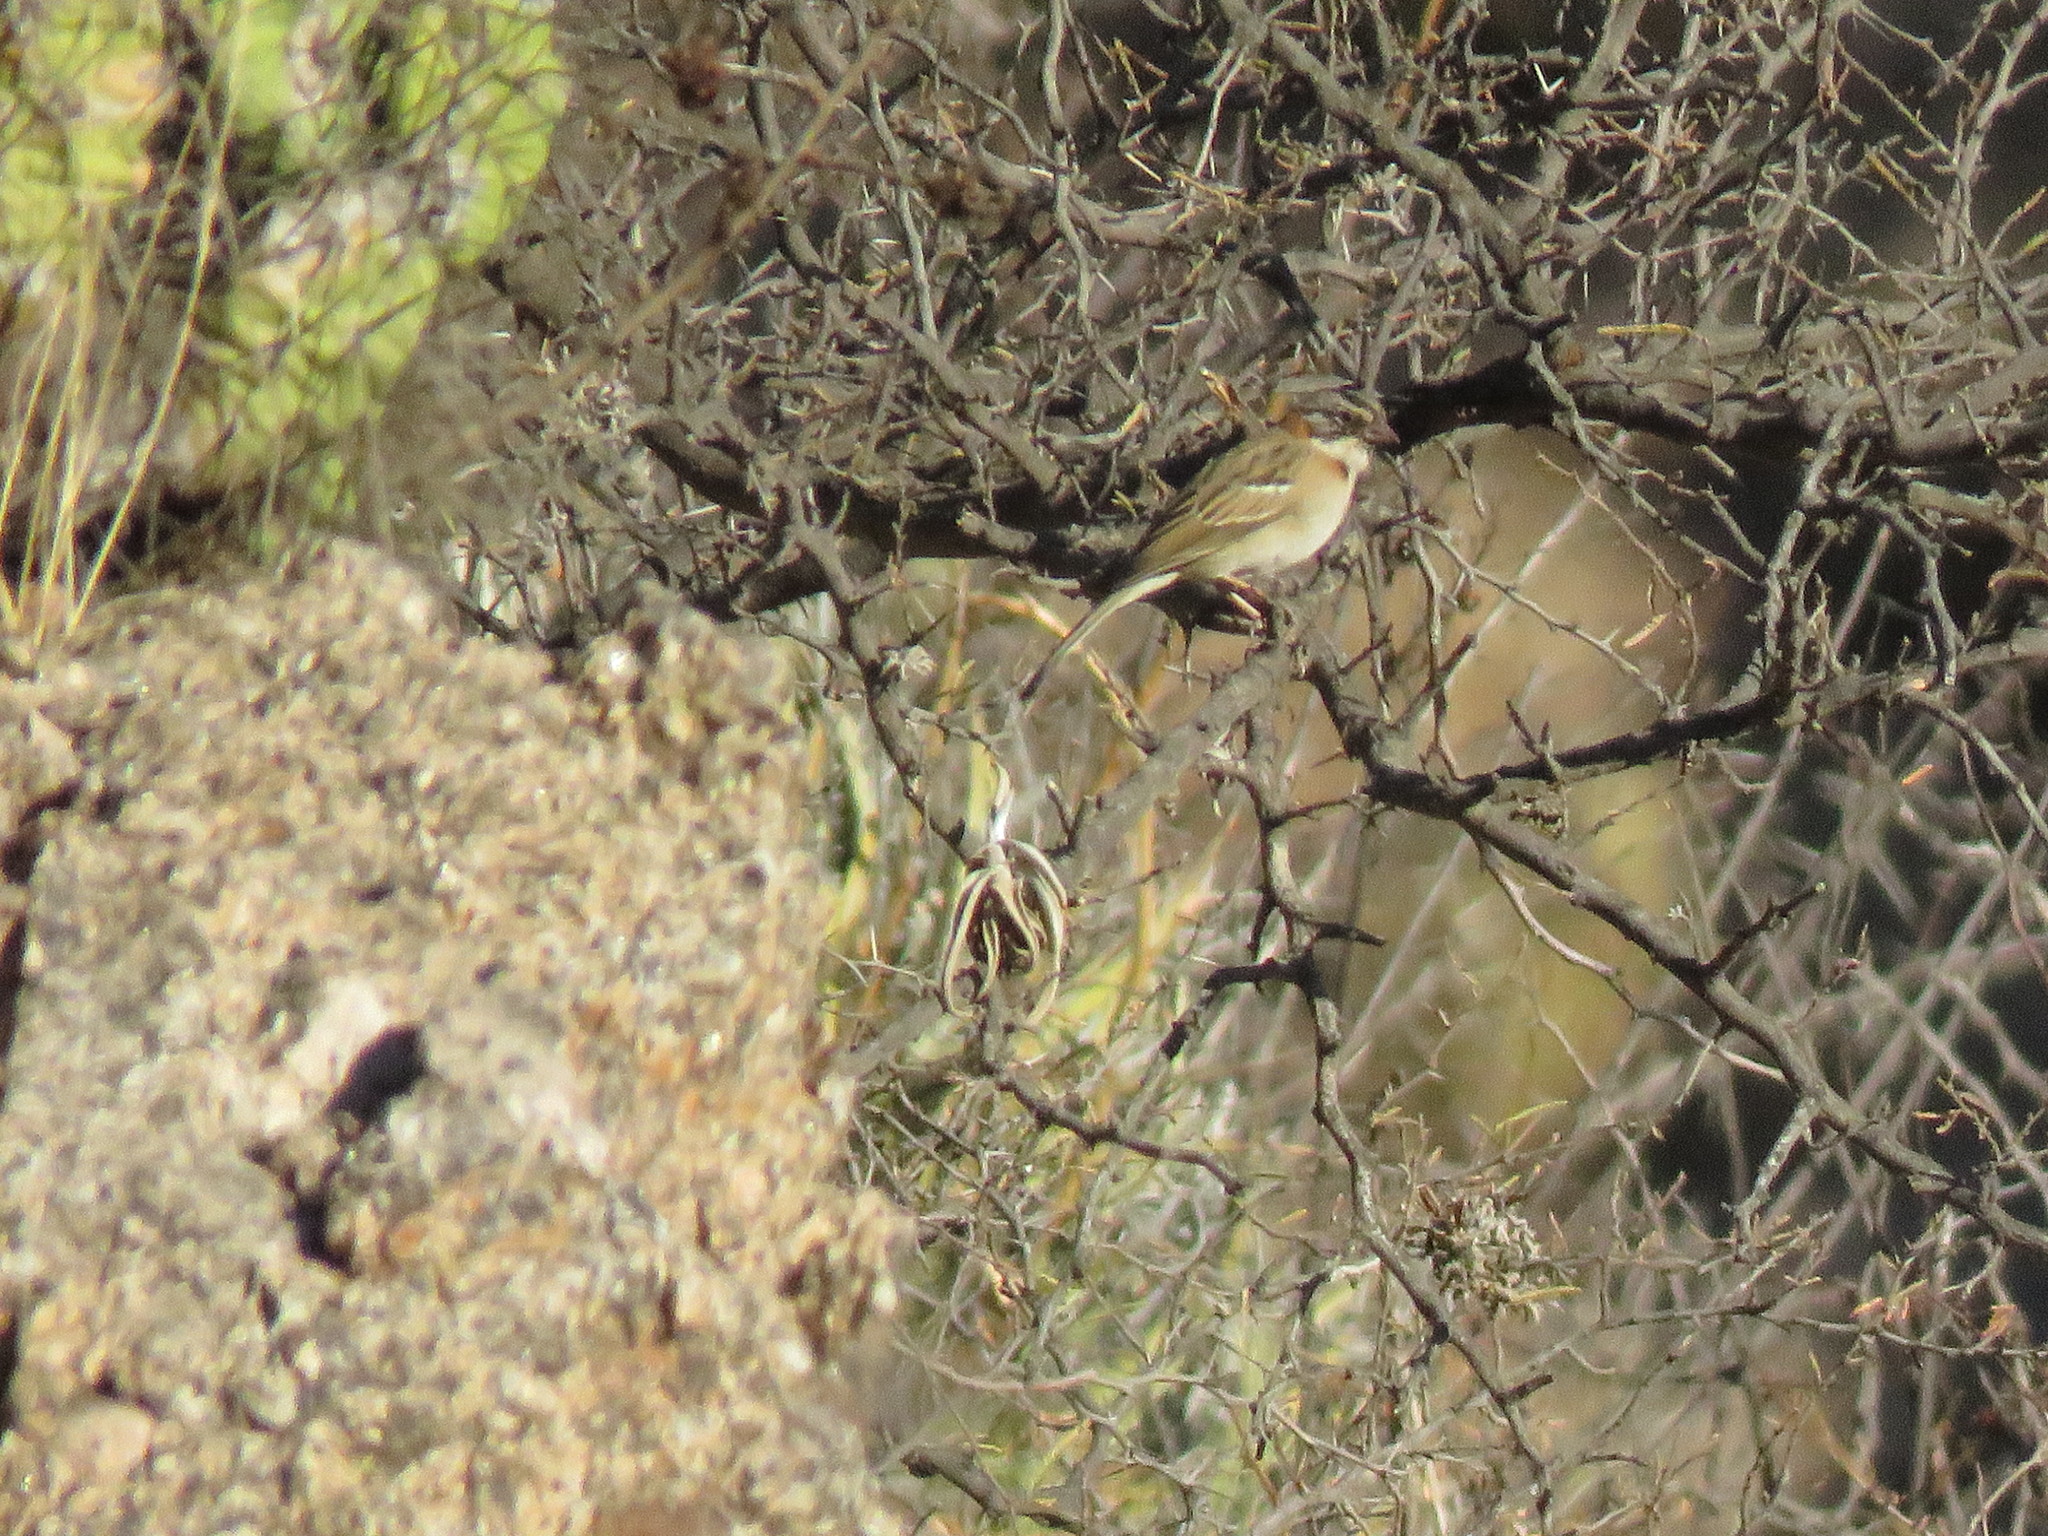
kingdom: Animalia
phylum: Chordata
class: Aves
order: Passeriformes
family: Passerellidae
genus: Zonotrichia
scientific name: Zonotrichia capensis
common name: Rufous-collared sparrow
